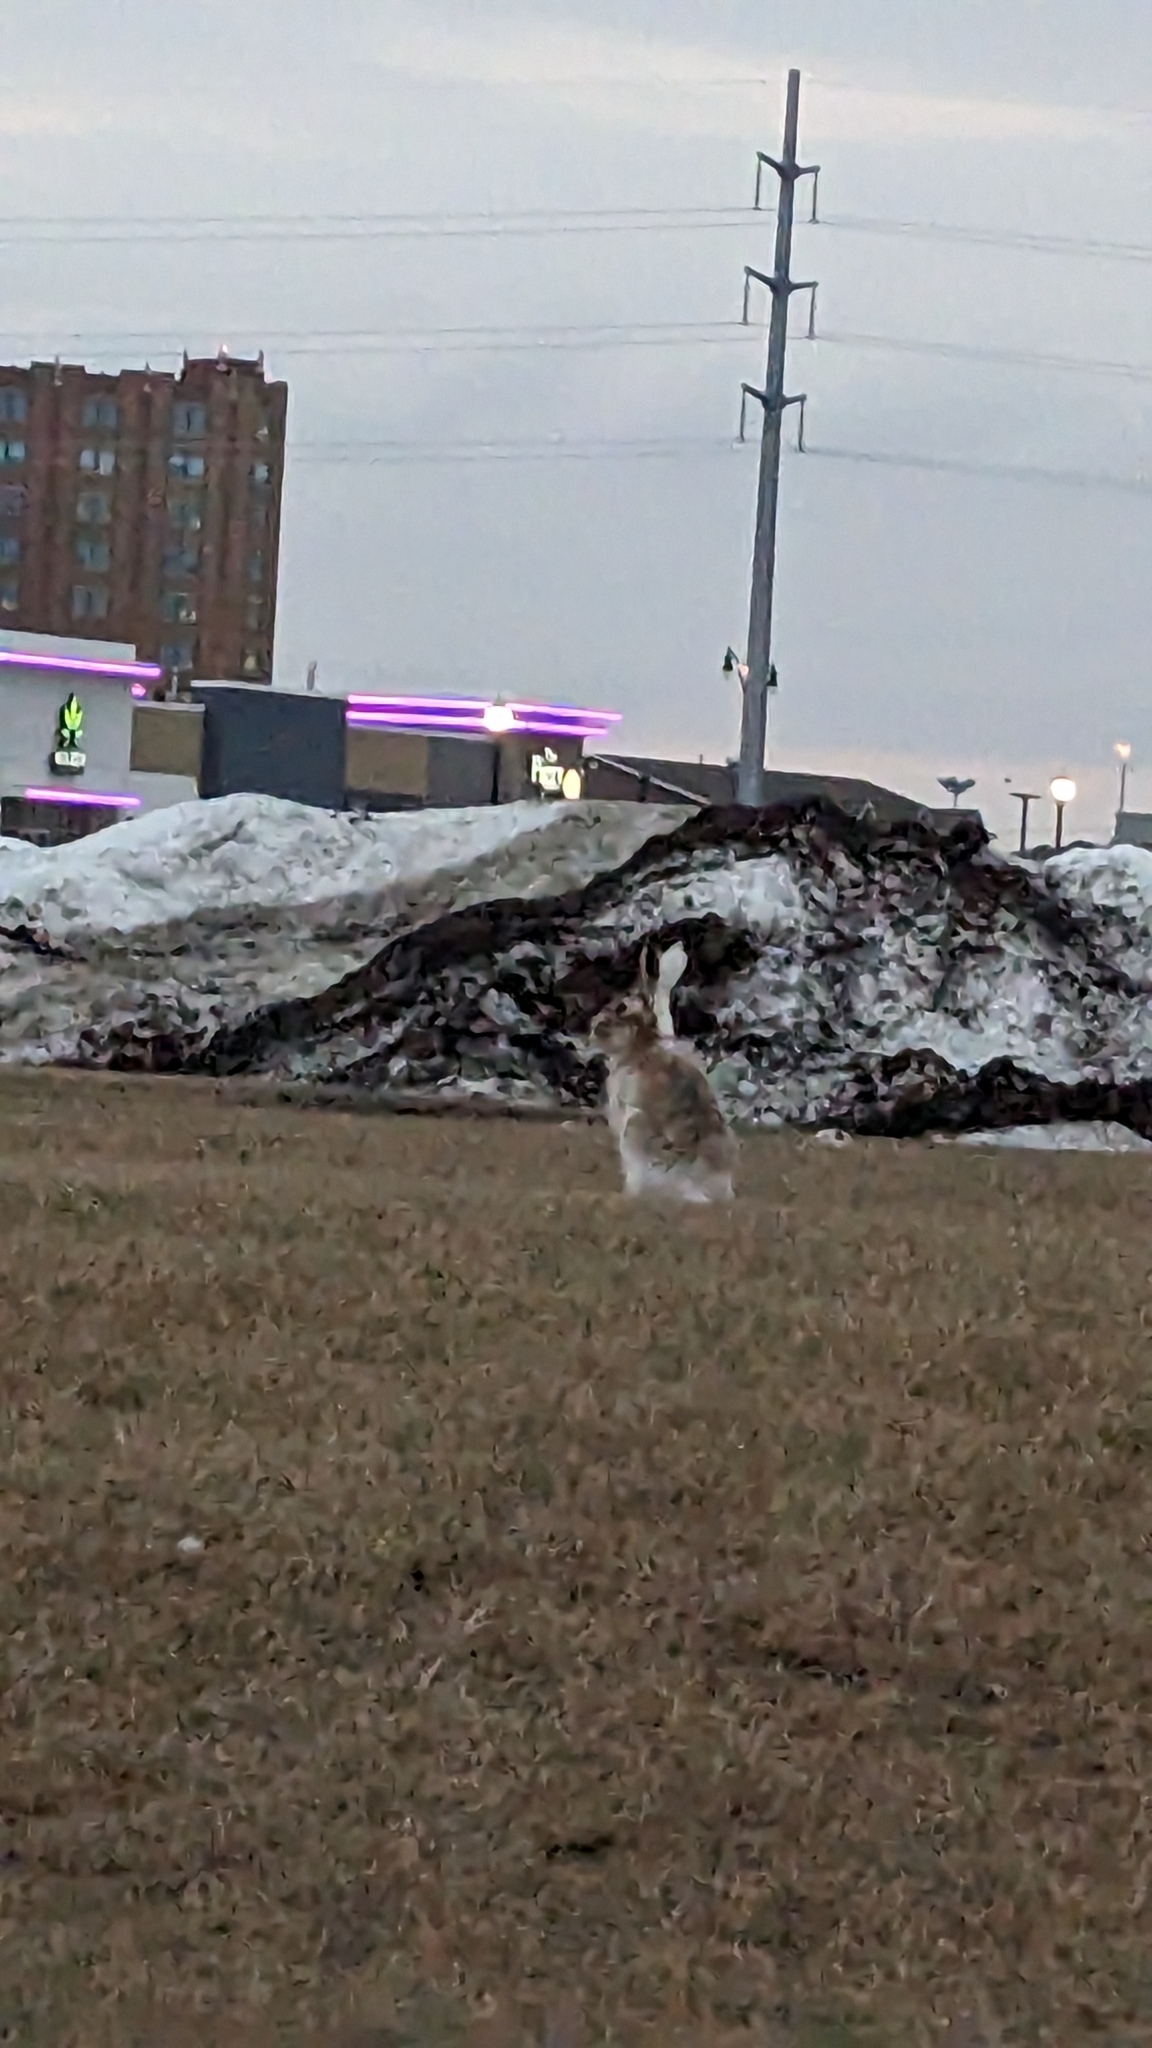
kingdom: Animalia
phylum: Chordata
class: Mammalia
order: Lagomorpha
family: Leporidae
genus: Lepus
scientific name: Lepus townsendii
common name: White-tailed jackrabbit
